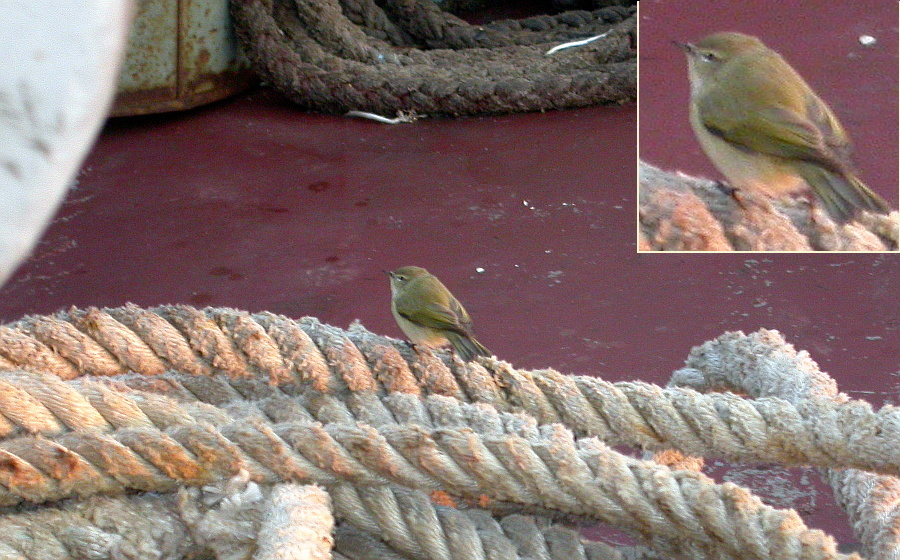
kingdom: Animalia
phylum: Chordata
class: Aves
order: Passeriformes
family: Phylloscopidae
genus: Phylloscopus
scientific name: Phylloscopus collybita
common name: Common chiffchaff
